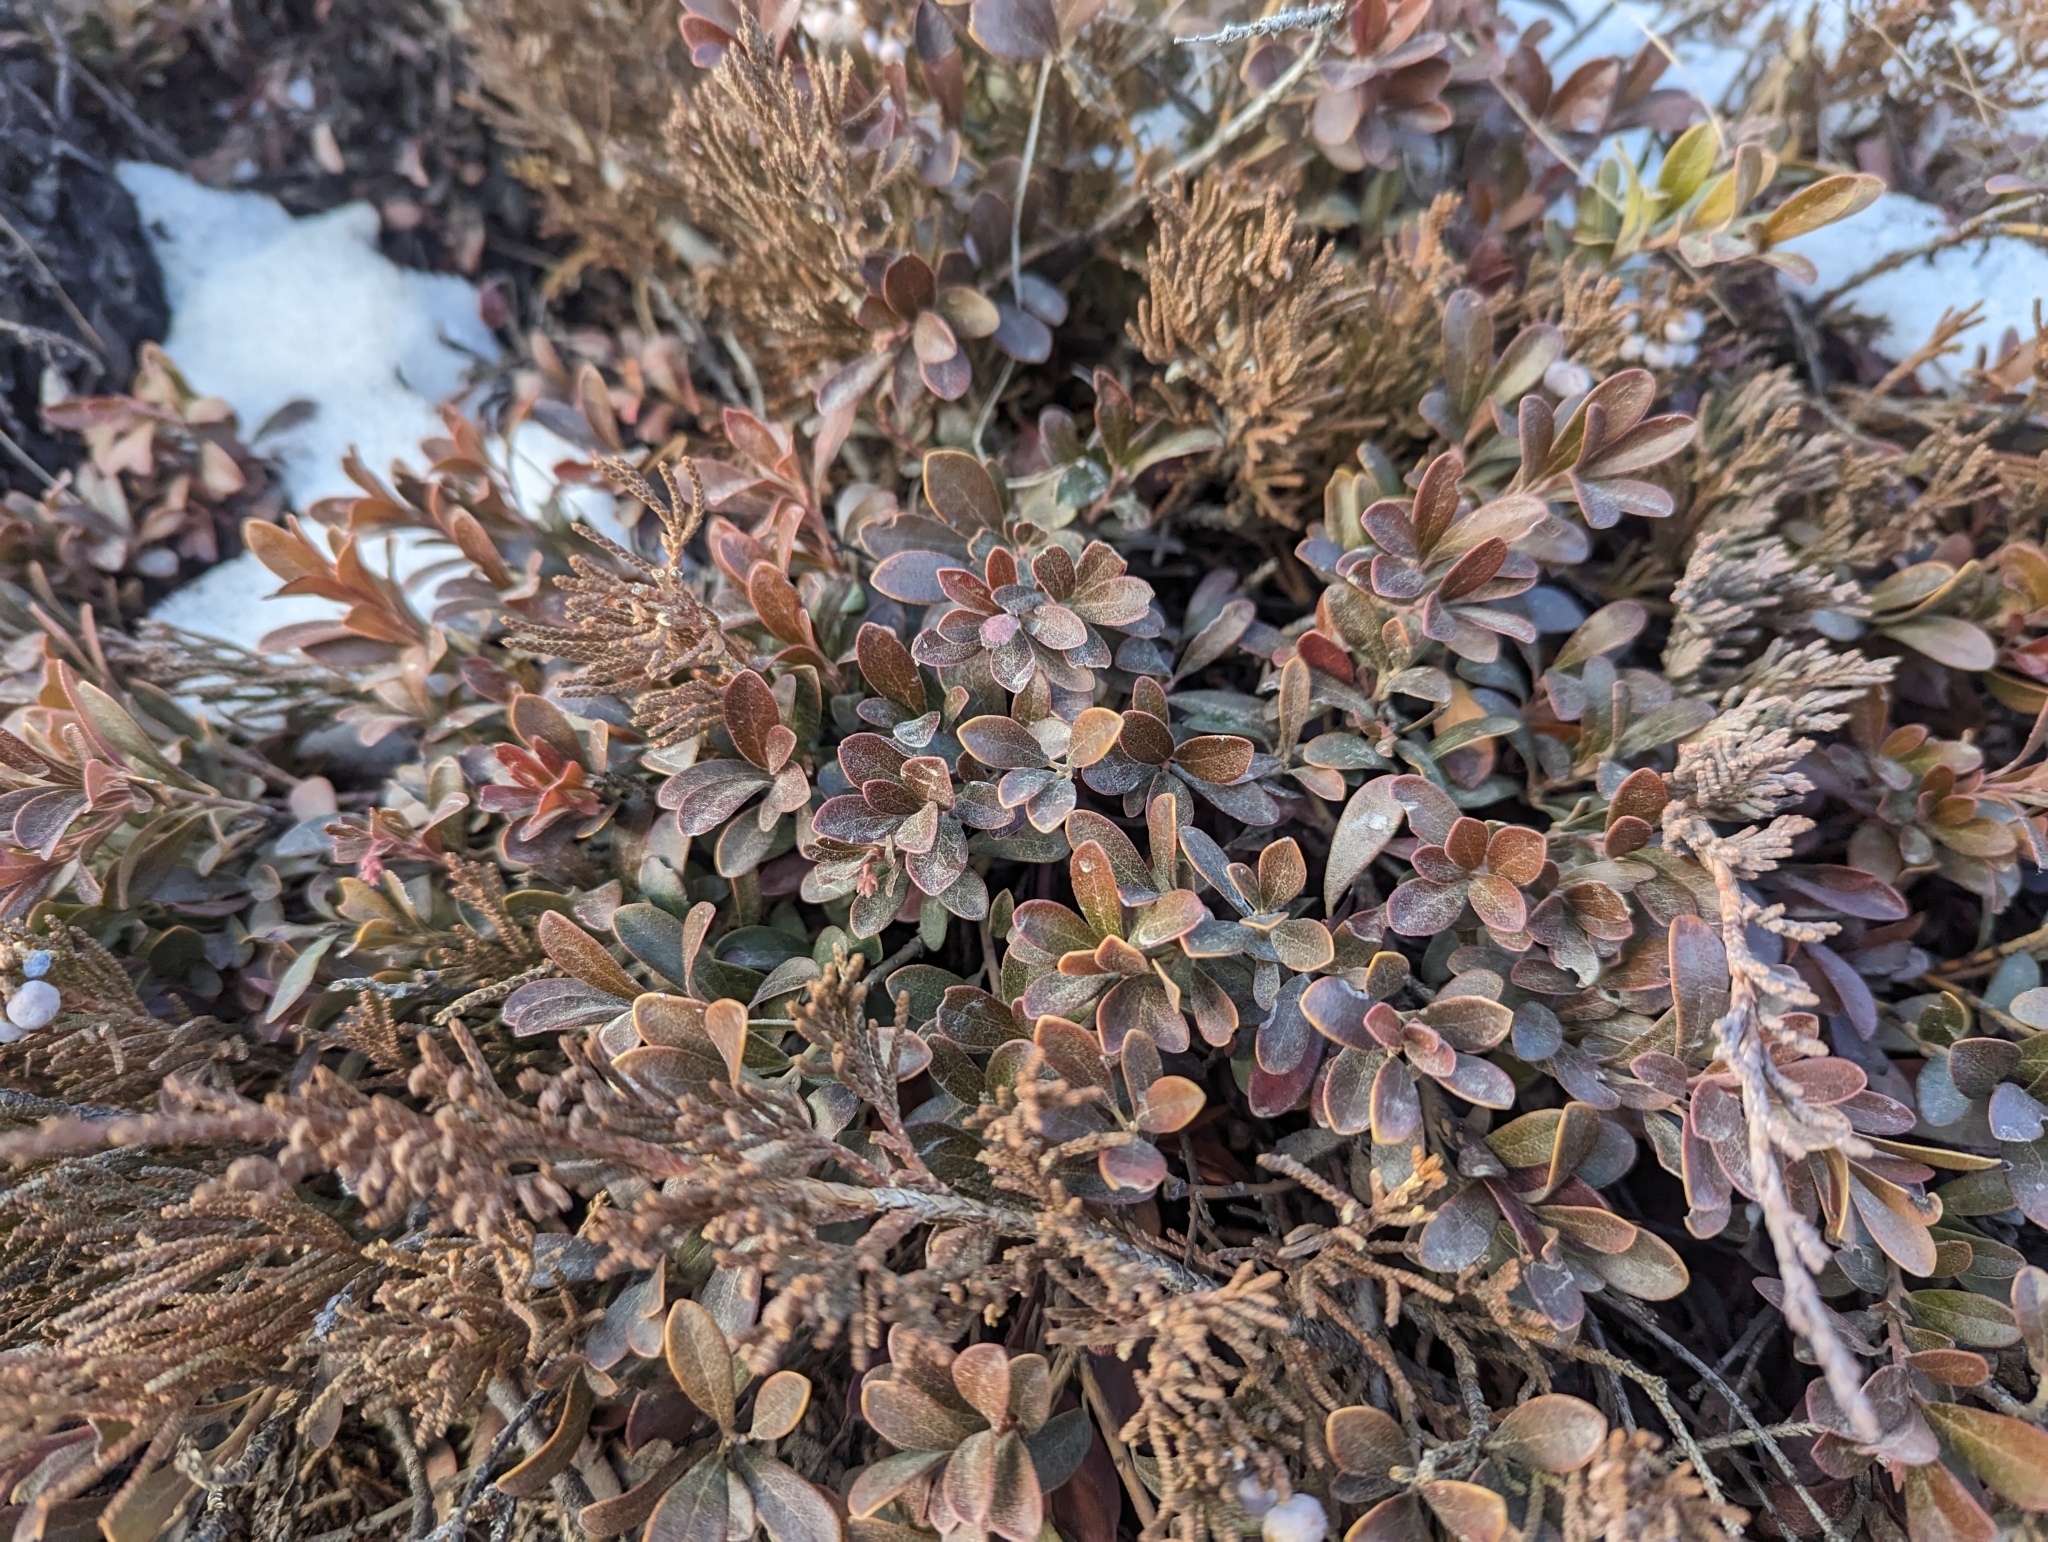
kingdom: Plantae
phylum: Tracheophyta
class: Magnoliopsida
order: Ericales
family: Ericaceae
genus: Arctostaphylos
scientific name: Arctostaphylos uva-ursi
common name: Bearberry
